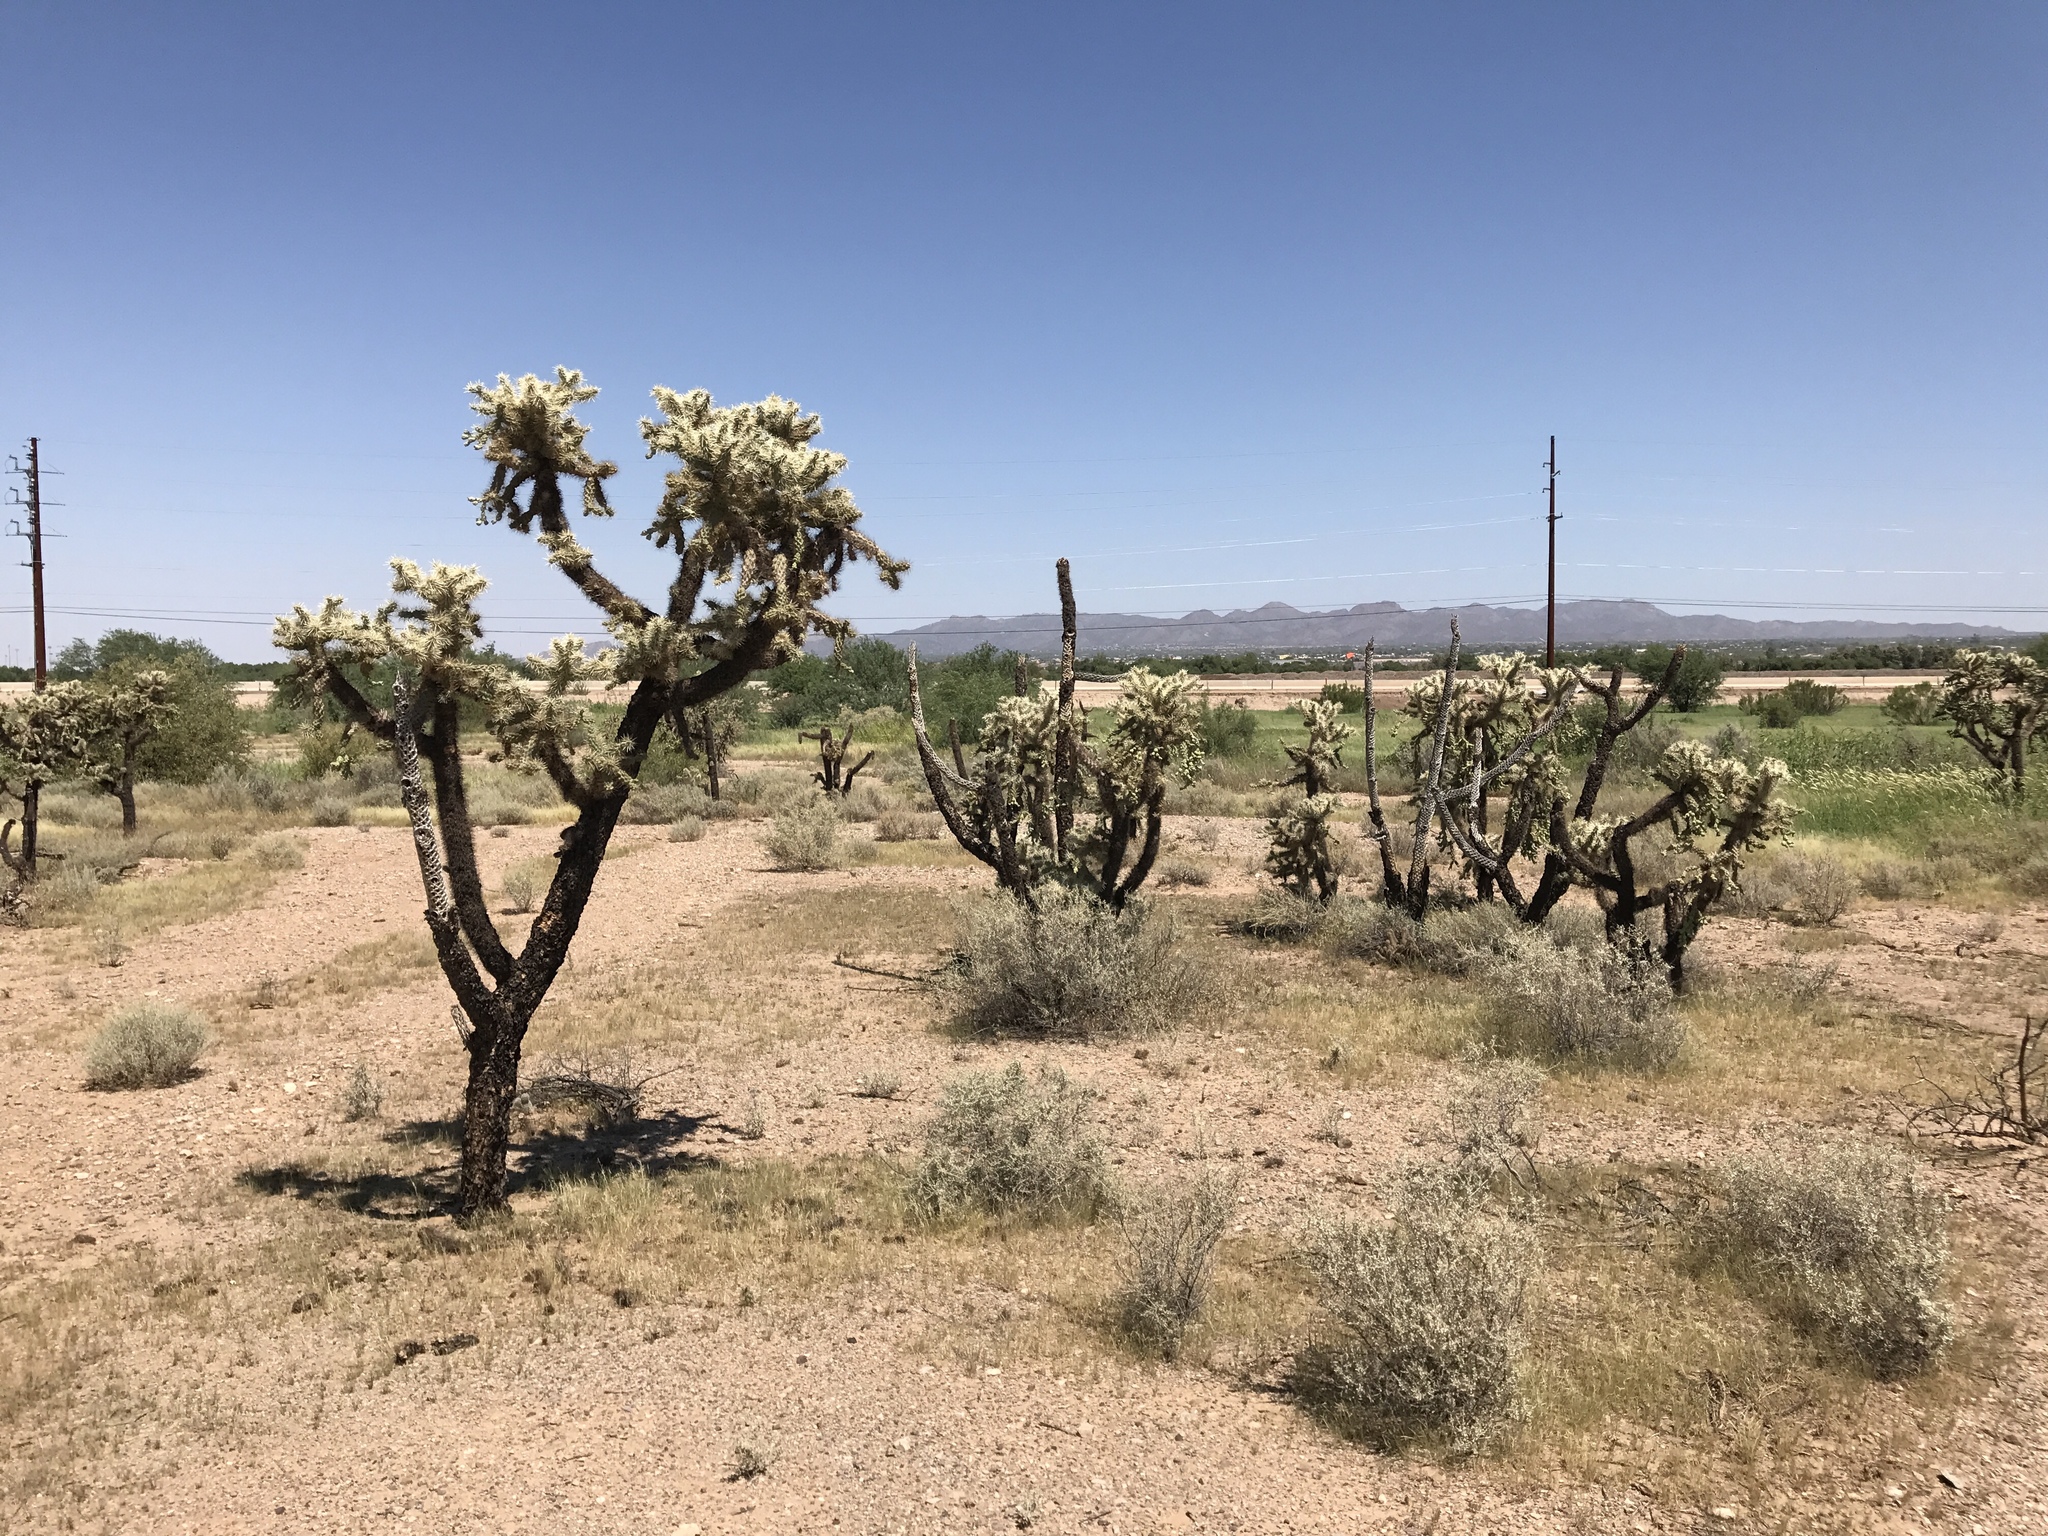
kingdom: Plantae
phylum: Tracheophyta
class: Magnoliopsida
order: Caryophyllales
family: Cactaceae
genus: Cylindropuntia
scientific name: Cylindropuntia fulgida
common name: Jumping cholla
